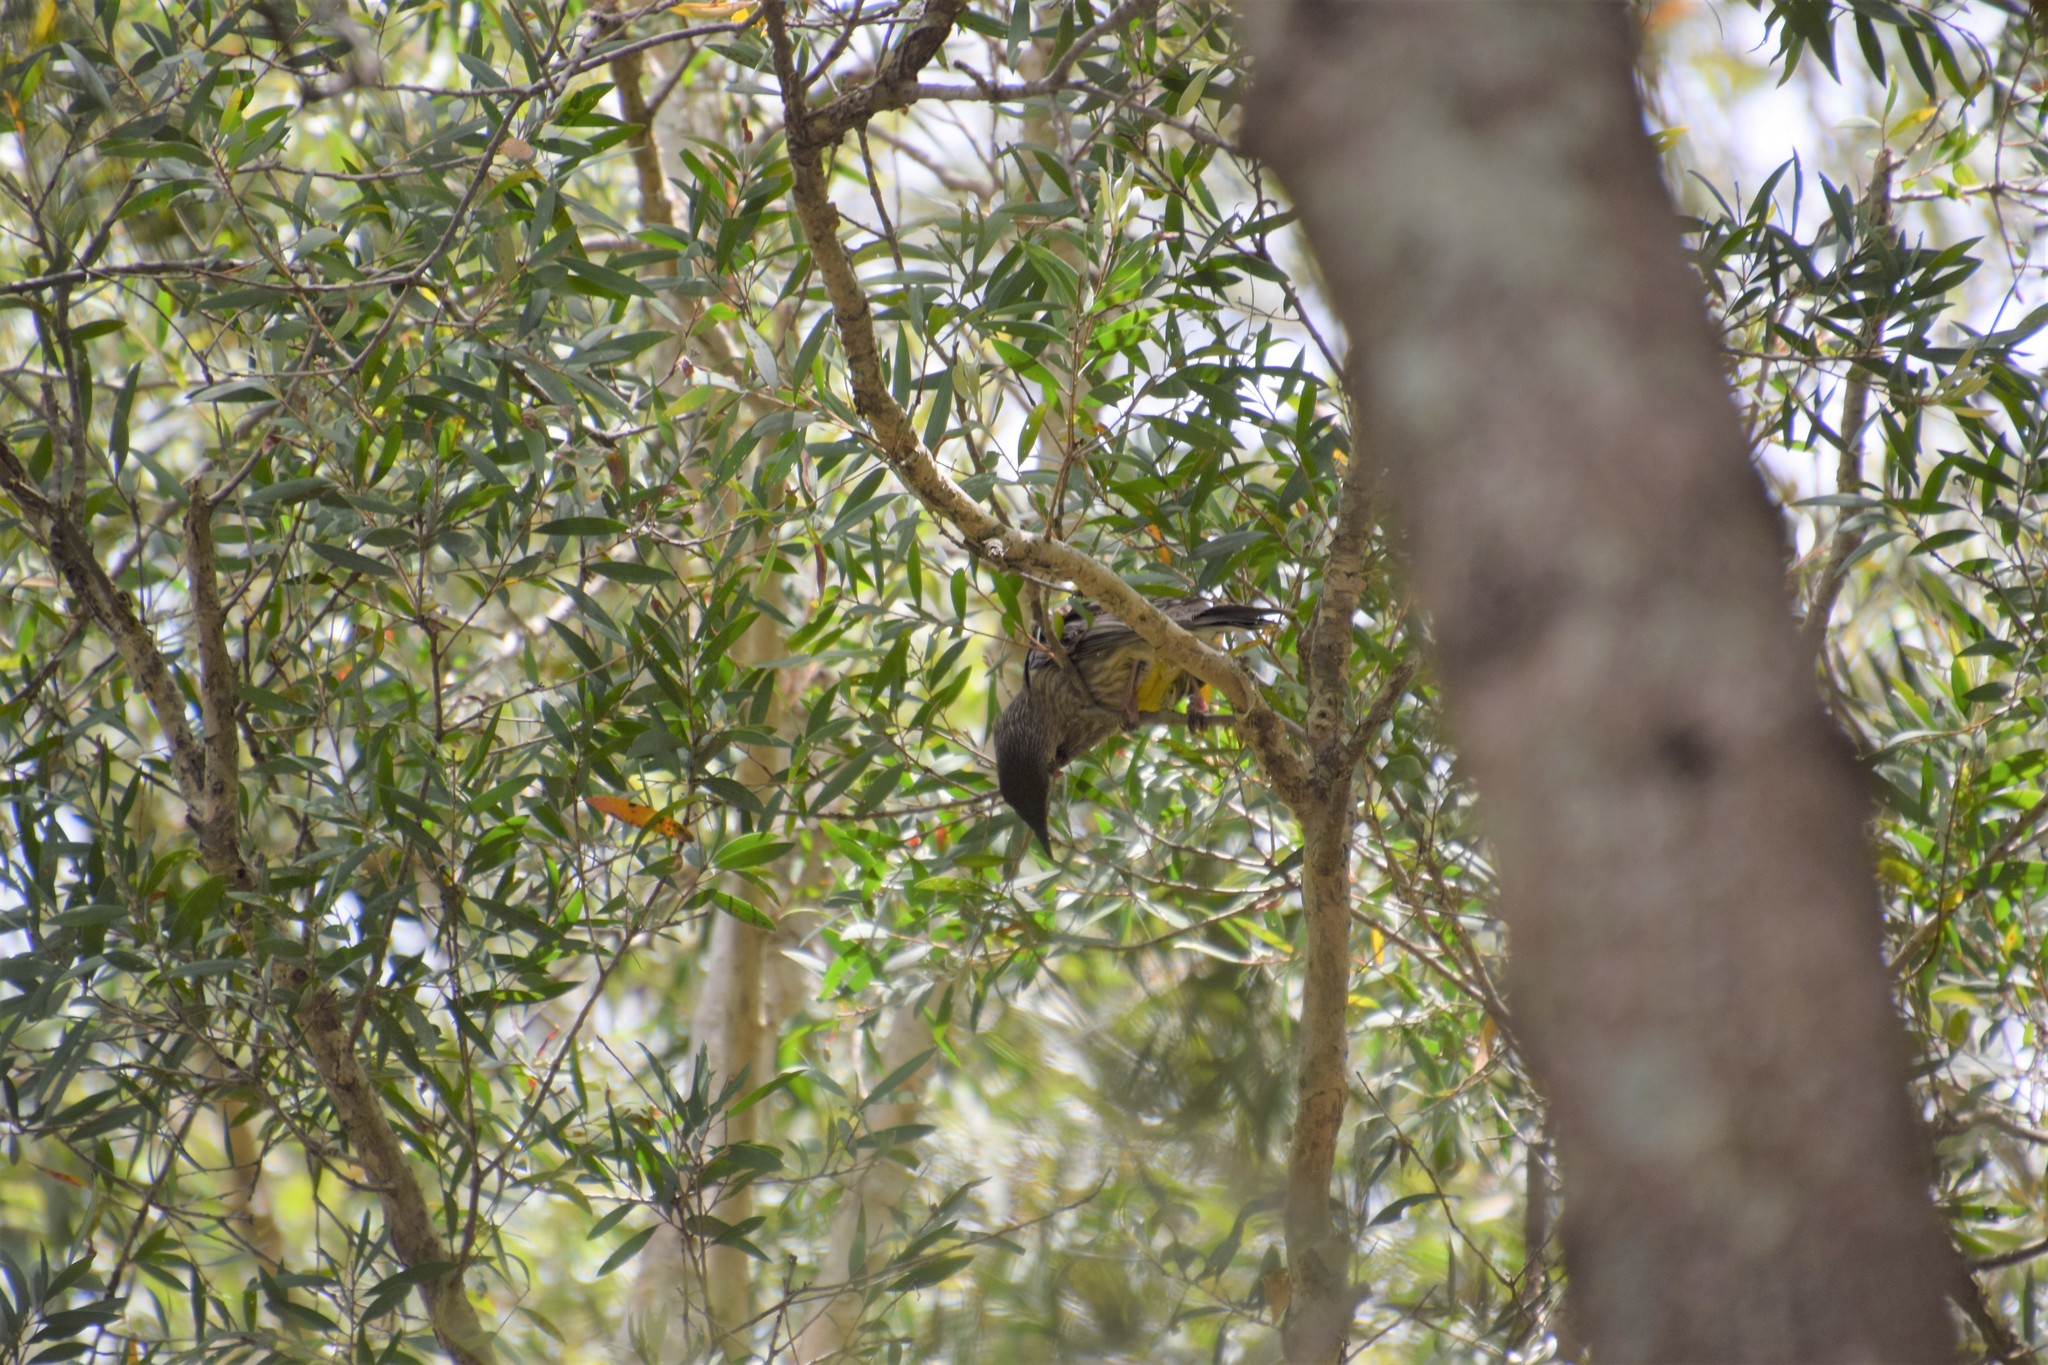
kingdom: Animalia
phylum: Chordata
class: Aves
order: Passeriformes
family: Meliphagidae
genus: Anthochaera
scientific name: Anthochaera carunculata
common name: Red wattlebird
